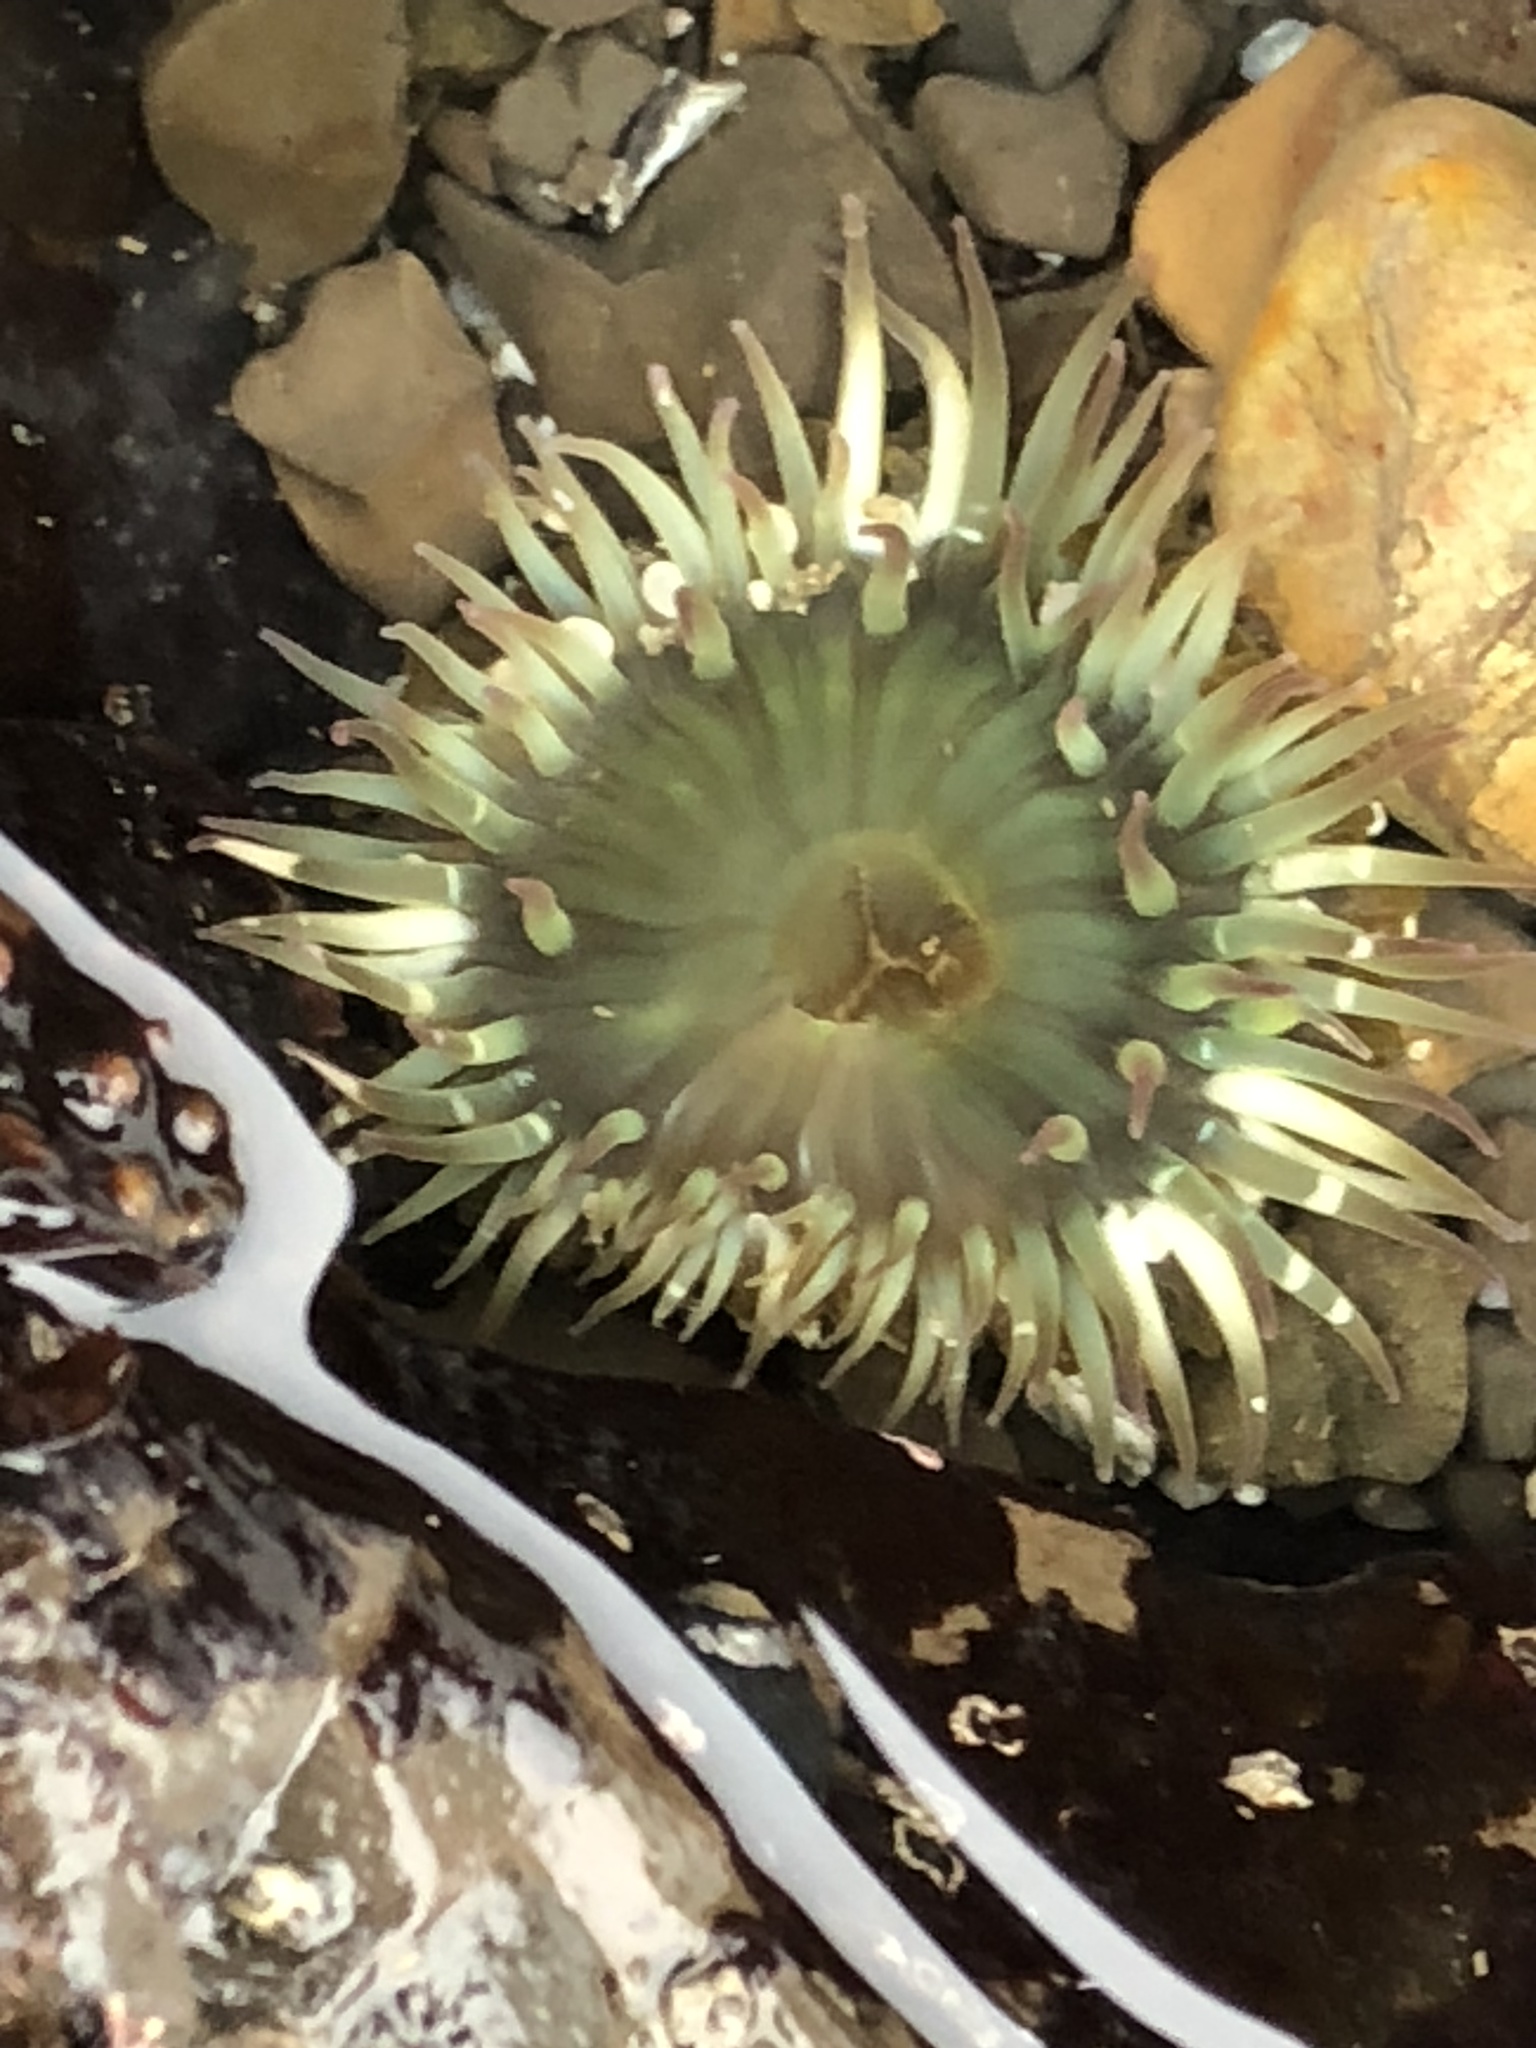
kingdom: Animalia
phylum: Cnidaria
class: Anthozoa
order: Actiniaria
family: Actiniidae
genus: Anthopleura
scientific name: Anthopleura elegantissima
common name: Clonal anemone
